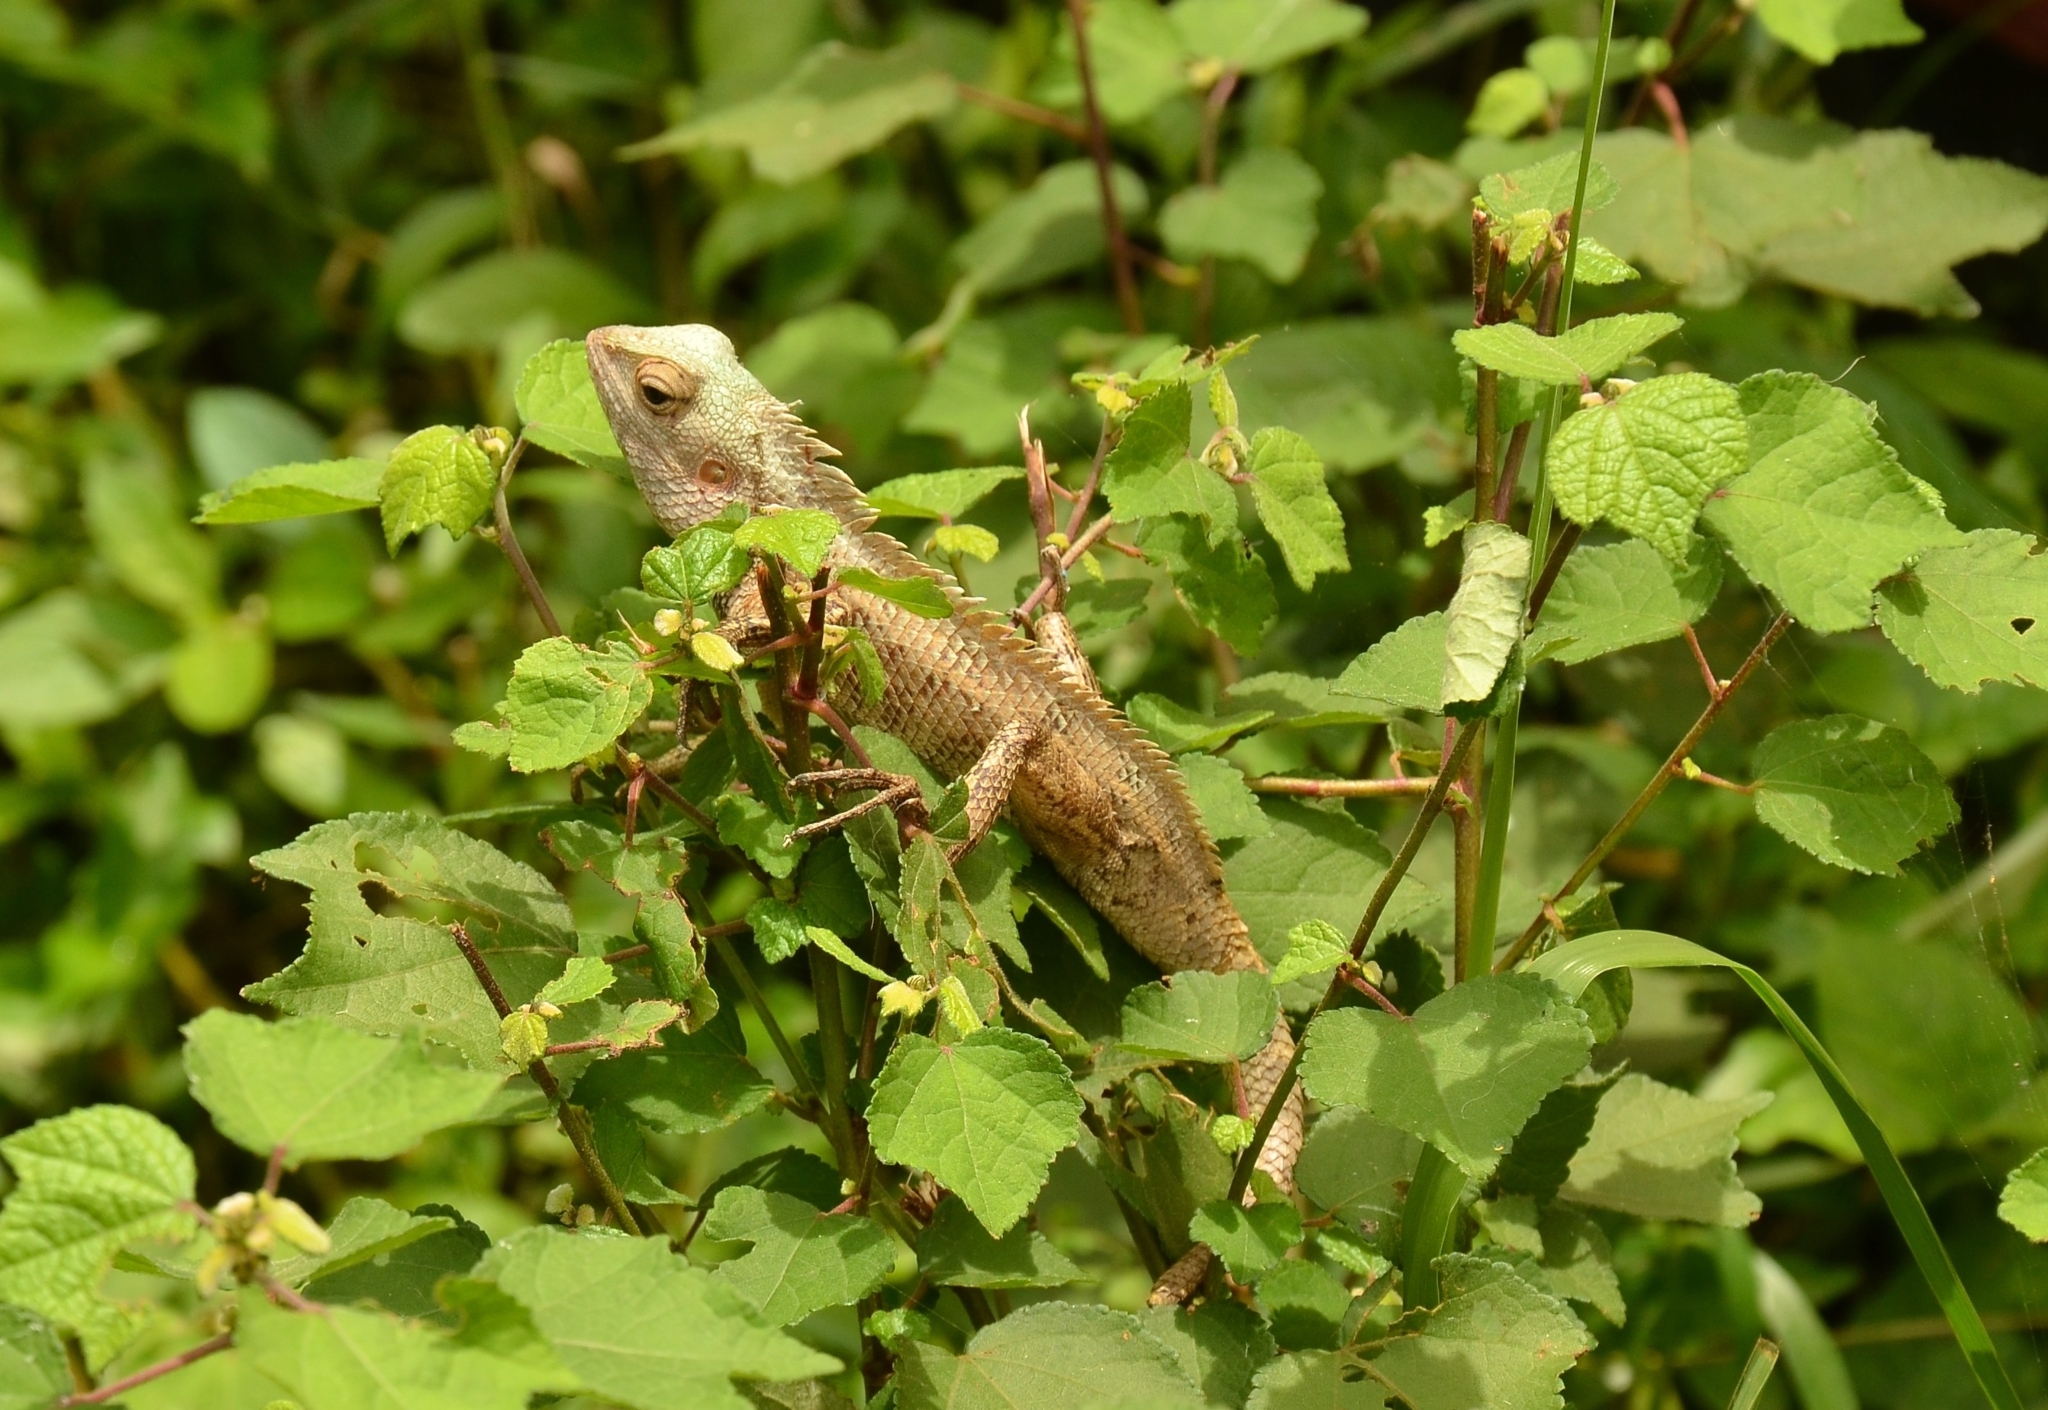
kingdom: Animalia
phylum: Chordata
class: Squamata
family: Agamidae
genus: Calotes
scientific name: Calotes versicolor
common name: Oriental garden lizard
